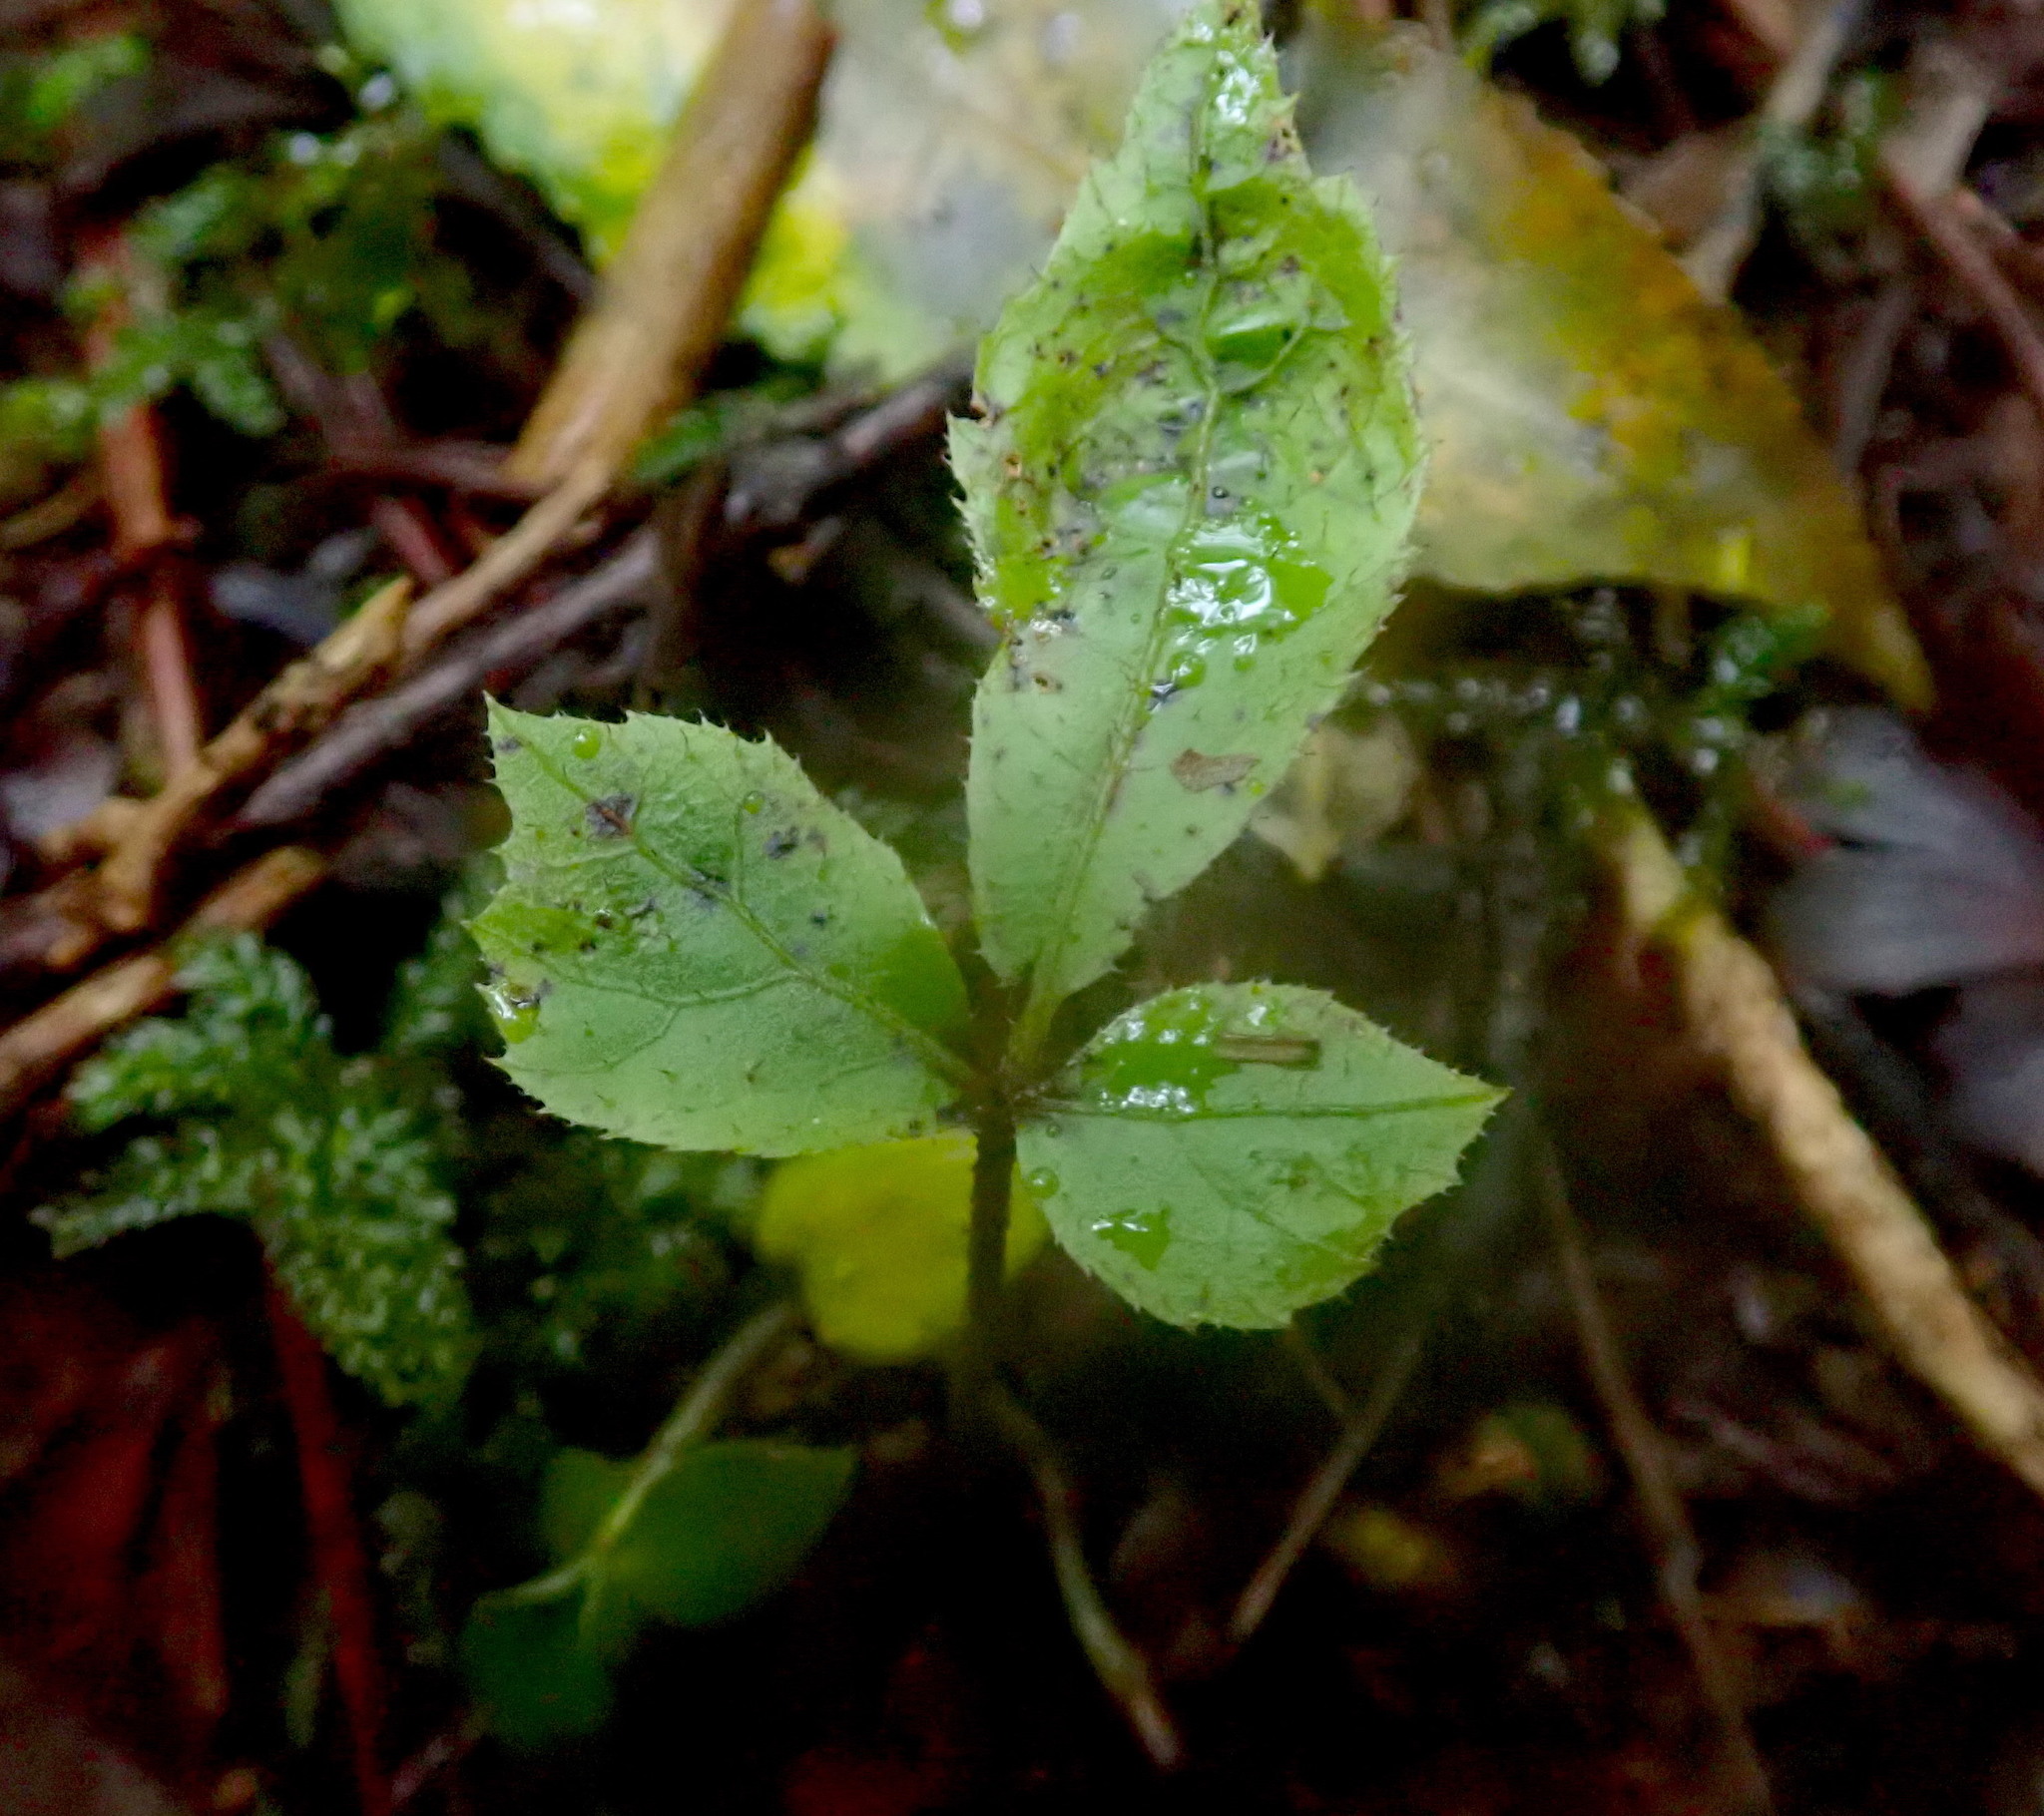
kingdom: Plantae
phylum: Tracheophyta
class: Magnoliopsida
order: Apiales
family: Araliaceae
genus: Schefflera
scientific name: Schefflera digitata
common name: Pate
